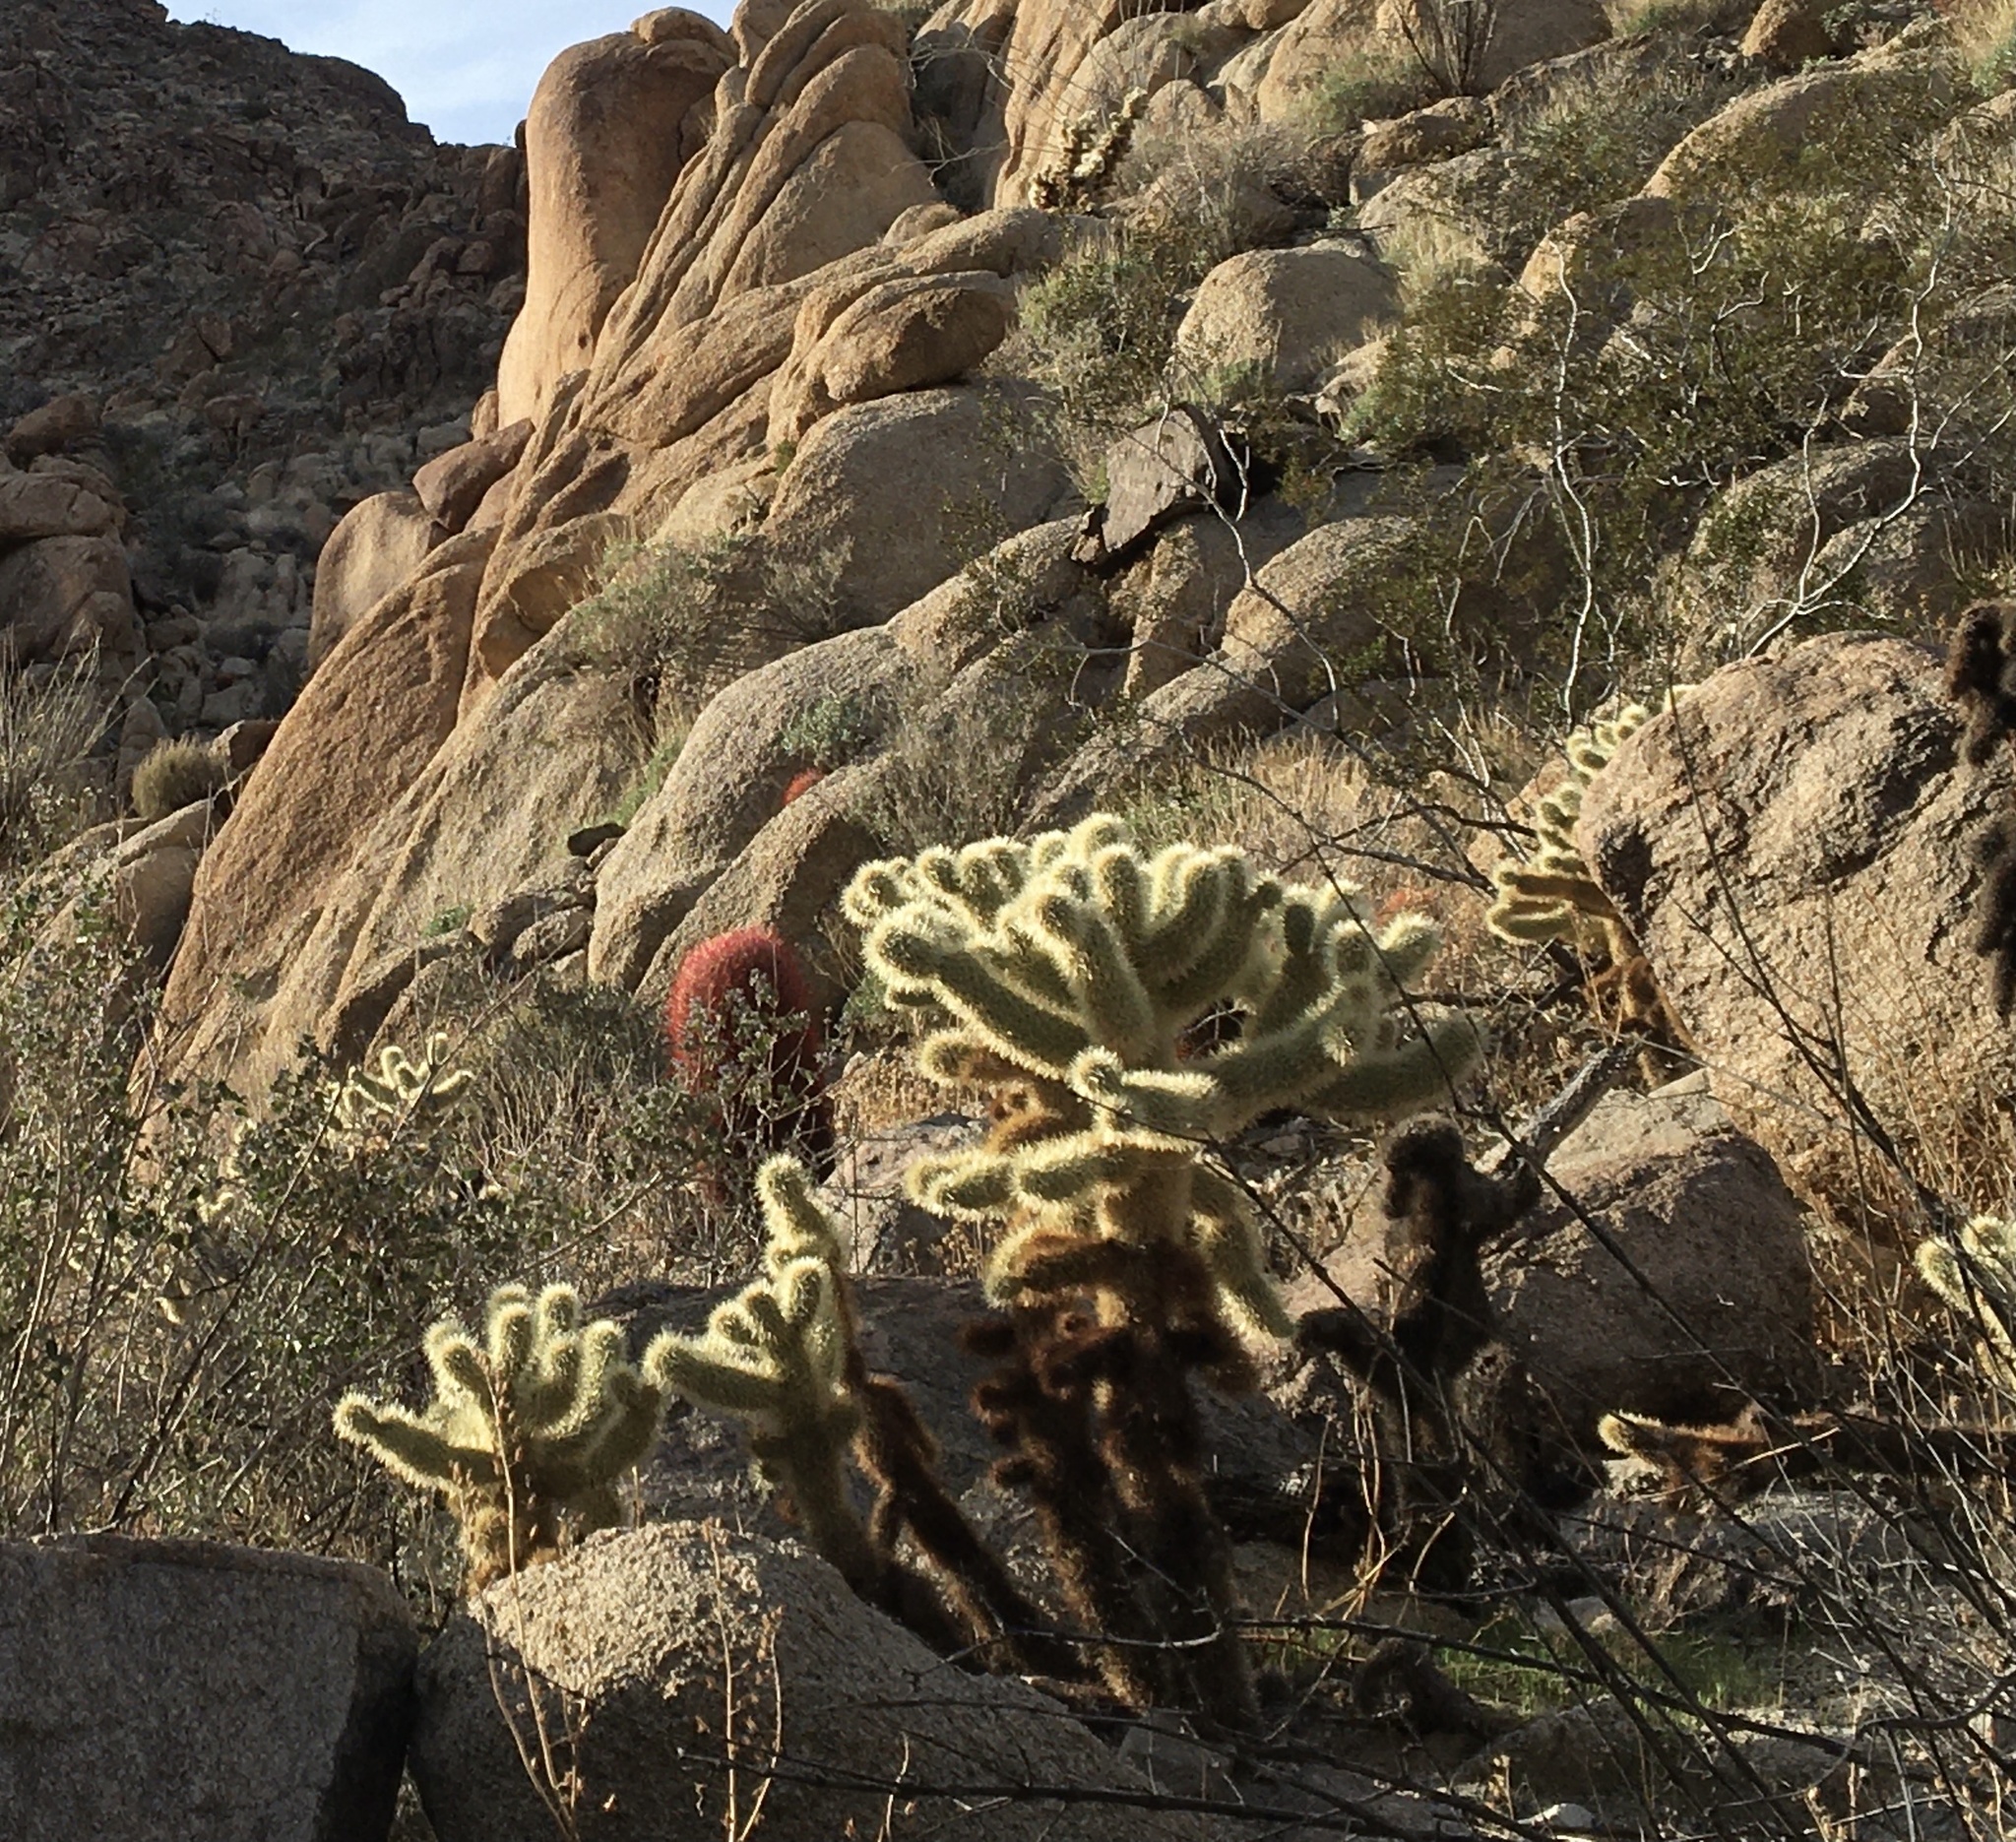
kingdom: Plantae
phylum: Tracheophyta
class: Magnoliopsida
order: Caryophyllales
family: Cactaceae
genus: Cylindropuntia
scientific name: Cylindropuntia fosbergii
